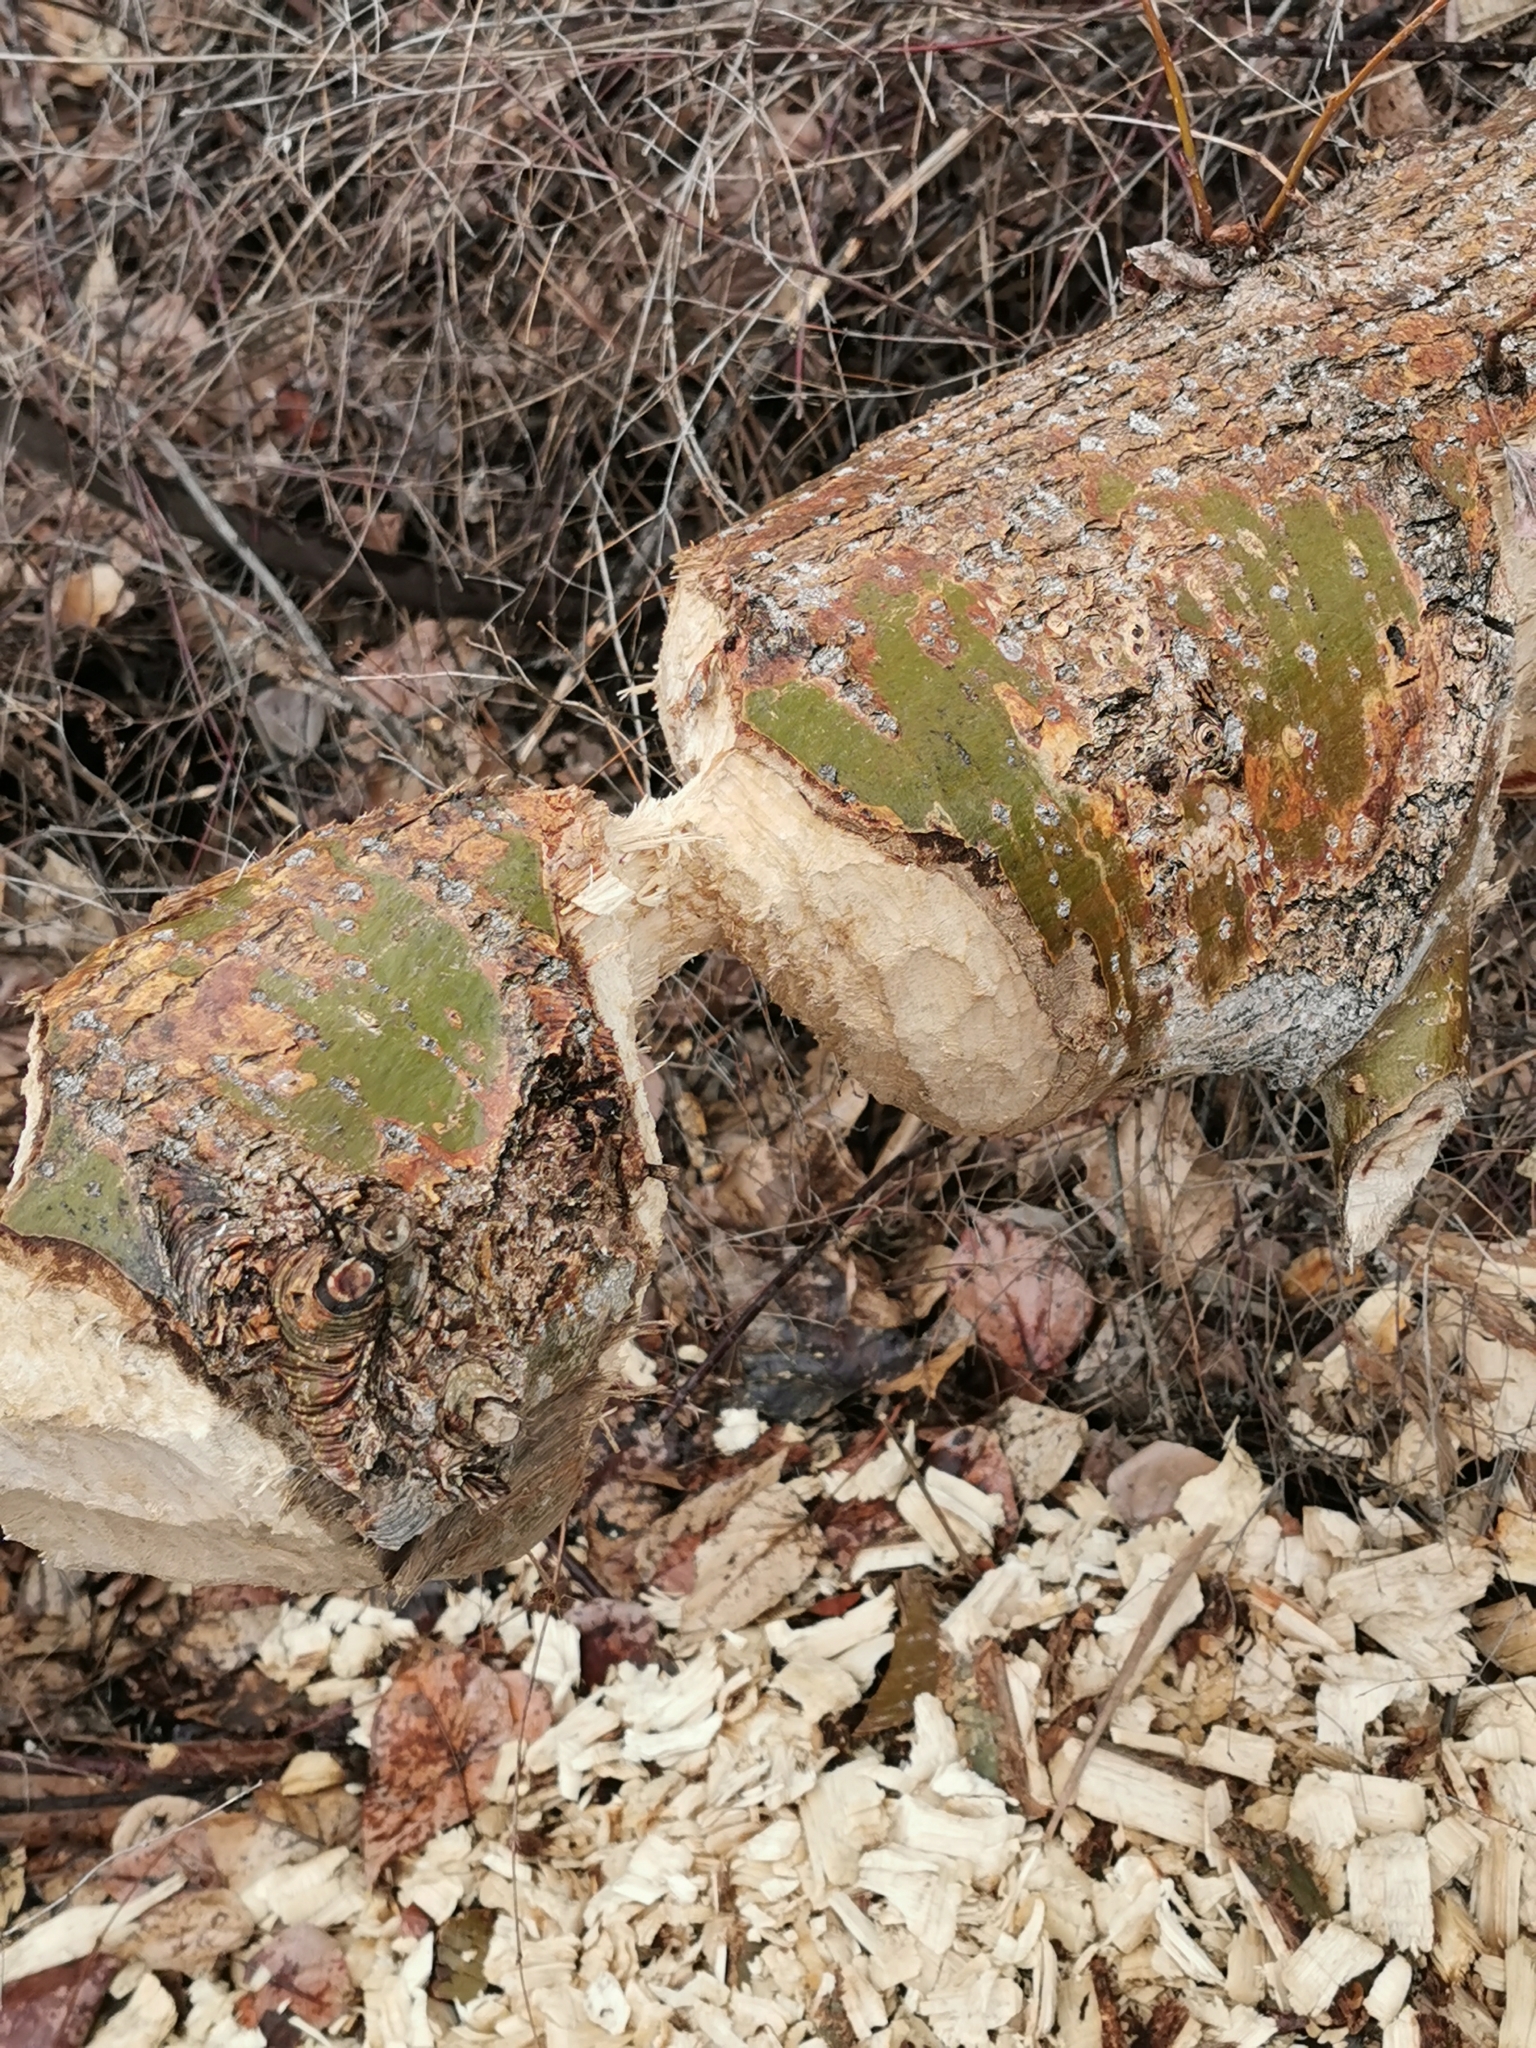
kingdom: Animalia
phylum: Chordata
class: Mammalia
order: Rodentia
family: Castoridae
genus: Castor
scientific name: Castor canadensis
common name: American beaver
